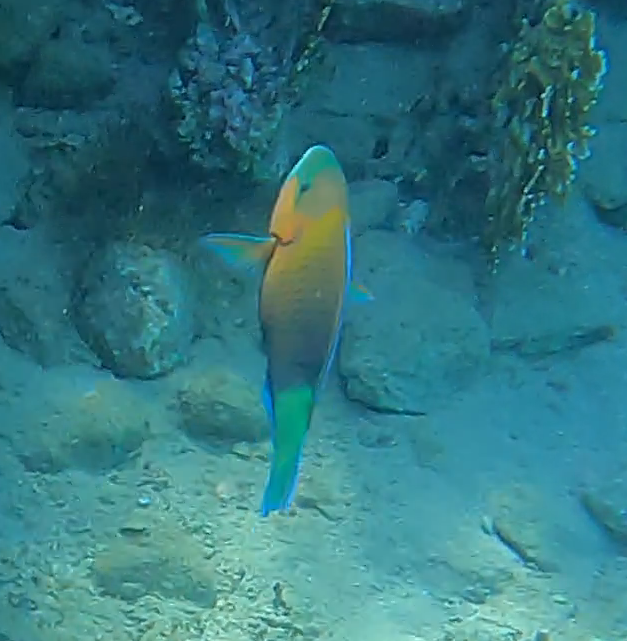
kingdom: Animalia
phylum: Chordata
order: Perciformes
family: Scaridae
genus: Chlorurus
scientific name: Chlorurus sordidus
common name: Bullethead parrotfish
